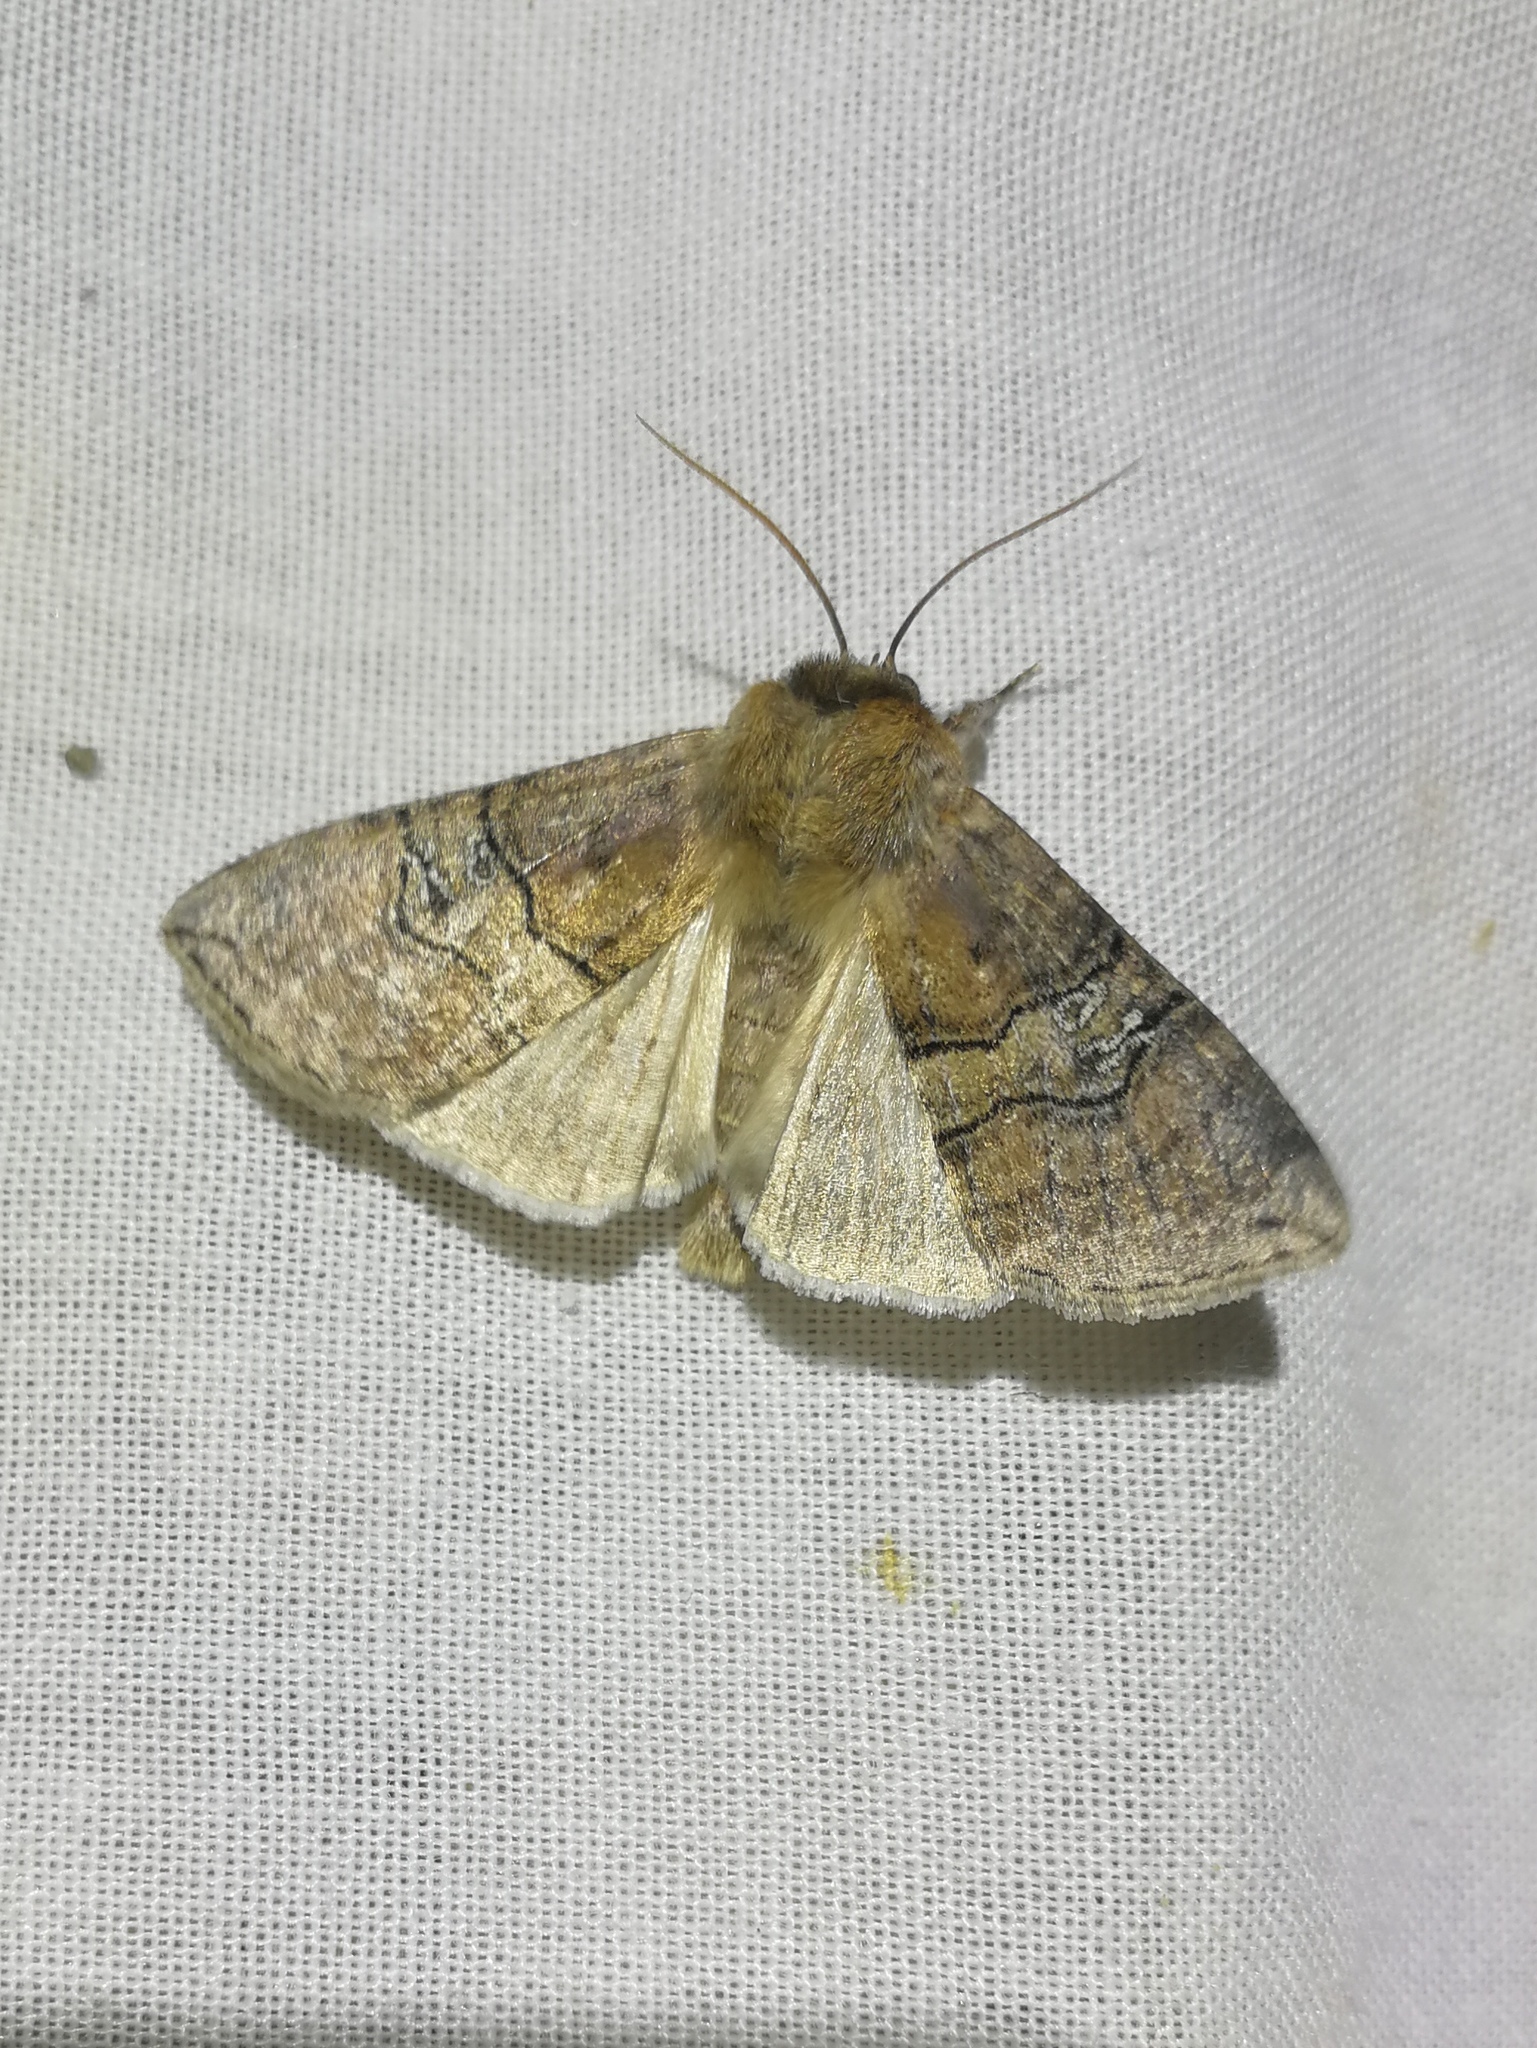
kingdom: Animalia
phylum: Arthropoda
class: Insecta
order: Lepidoptera
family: Drepanidae
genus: Tethea
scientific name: Tethea ocularis
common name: Figure of eighty
